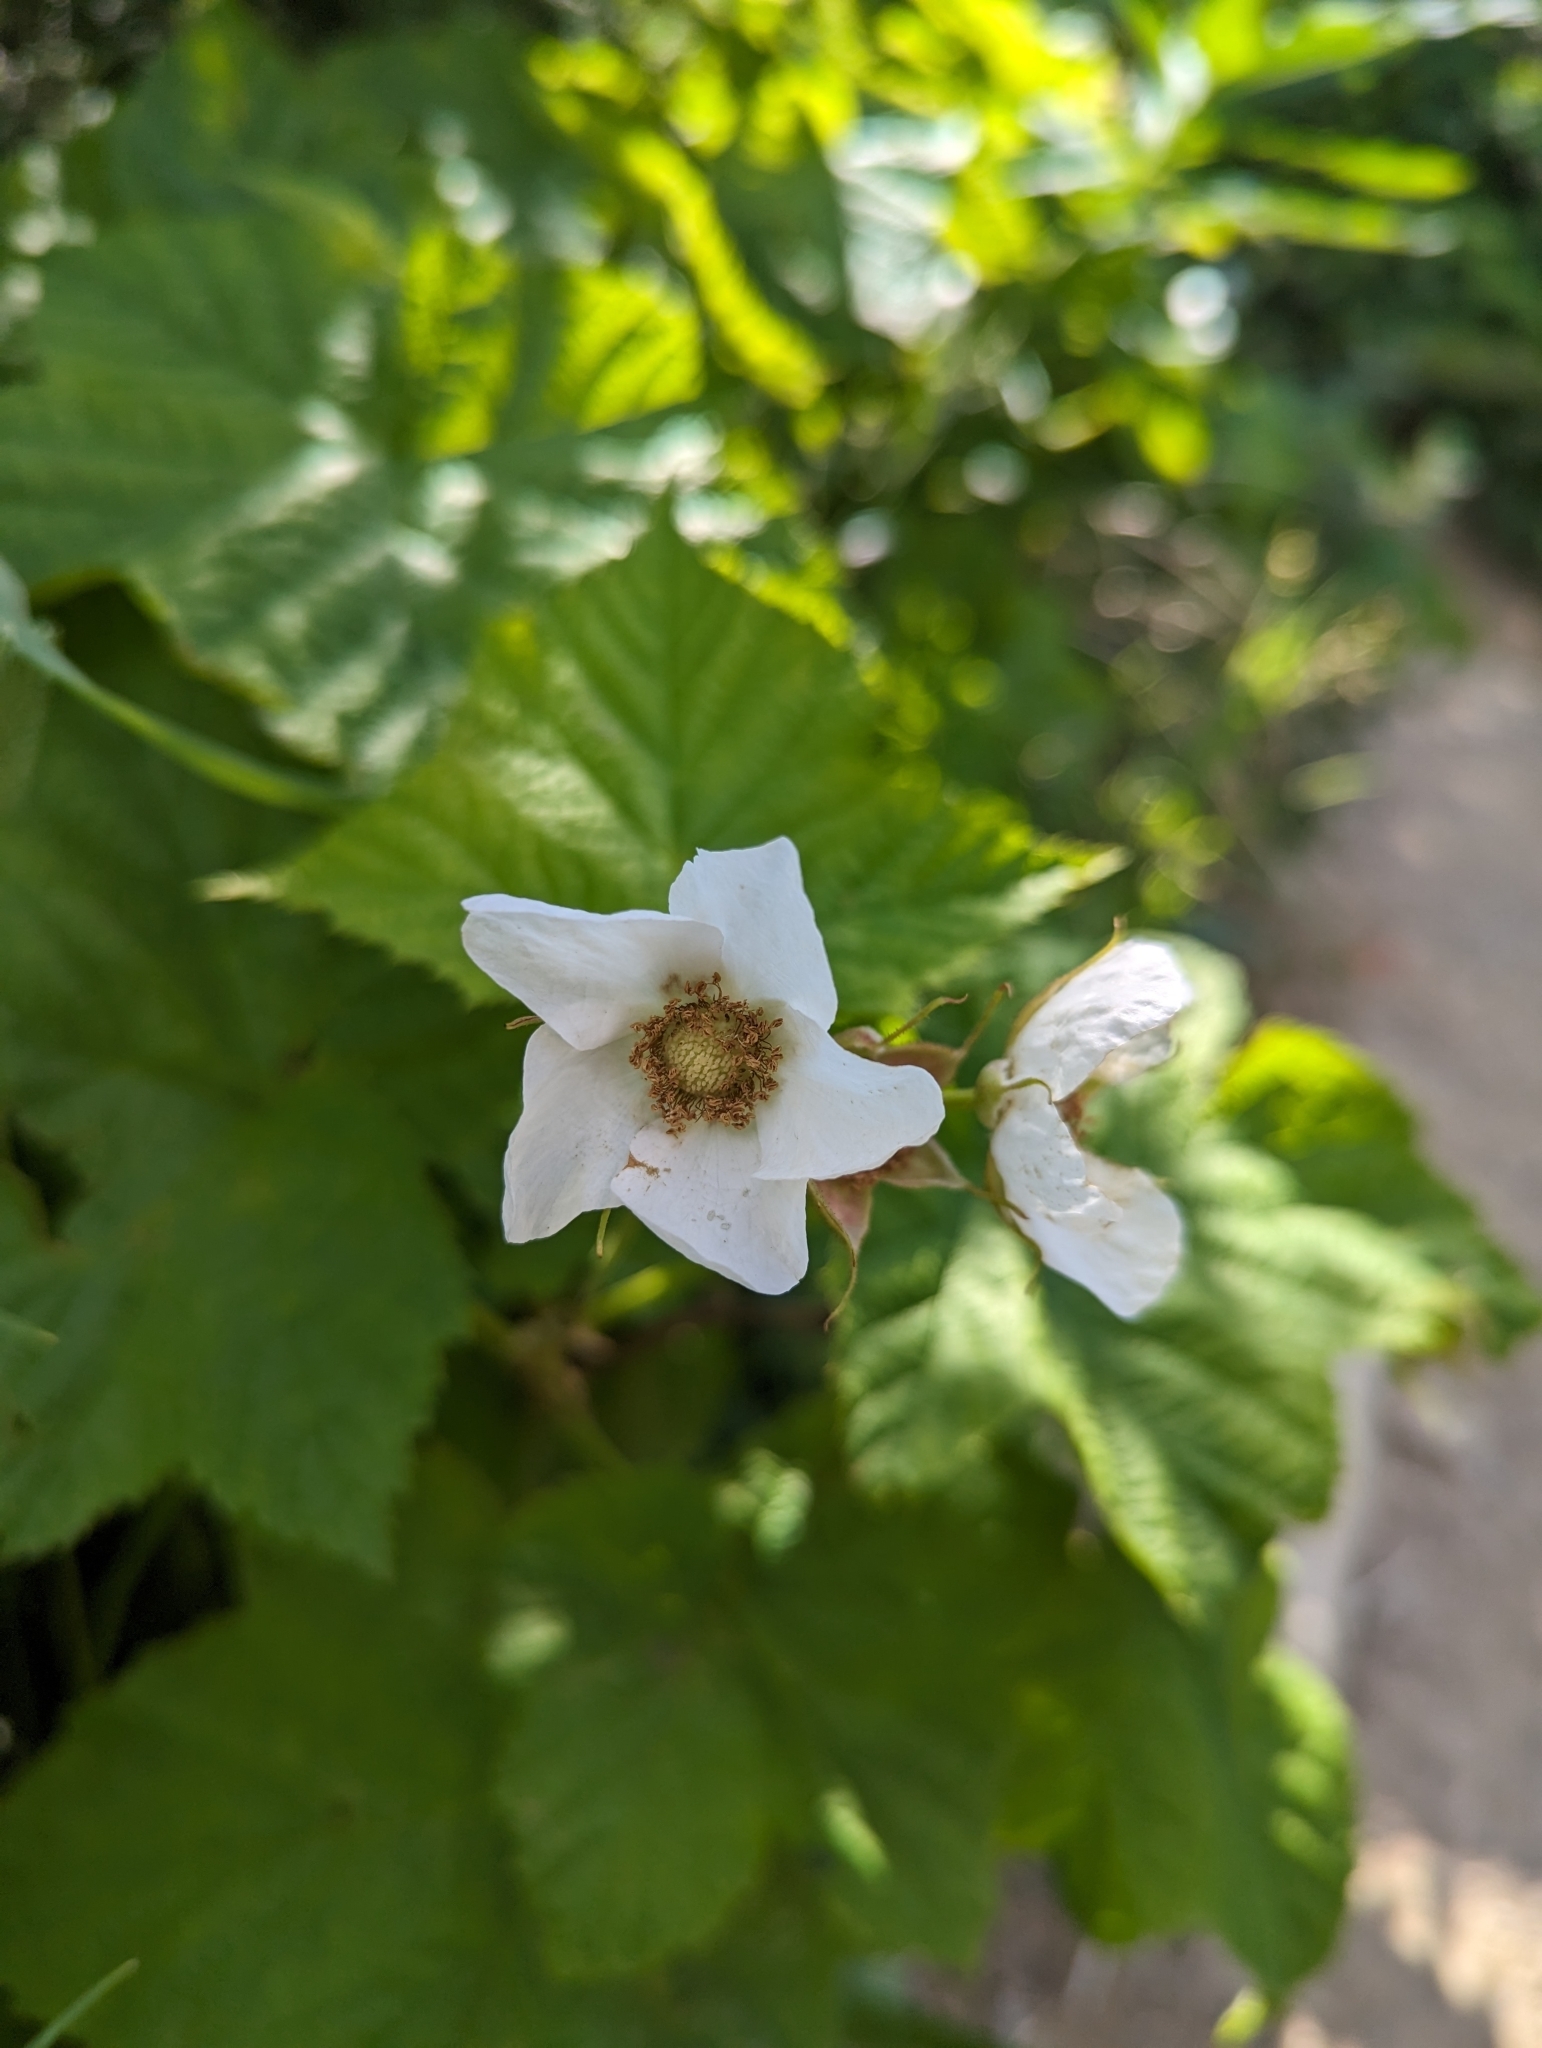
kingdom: Plantae
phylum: Tracheophyta
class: Magnoliopsida
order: Rosales
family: Rosaceae
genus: Rubus
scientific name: Rubus parviflorus
